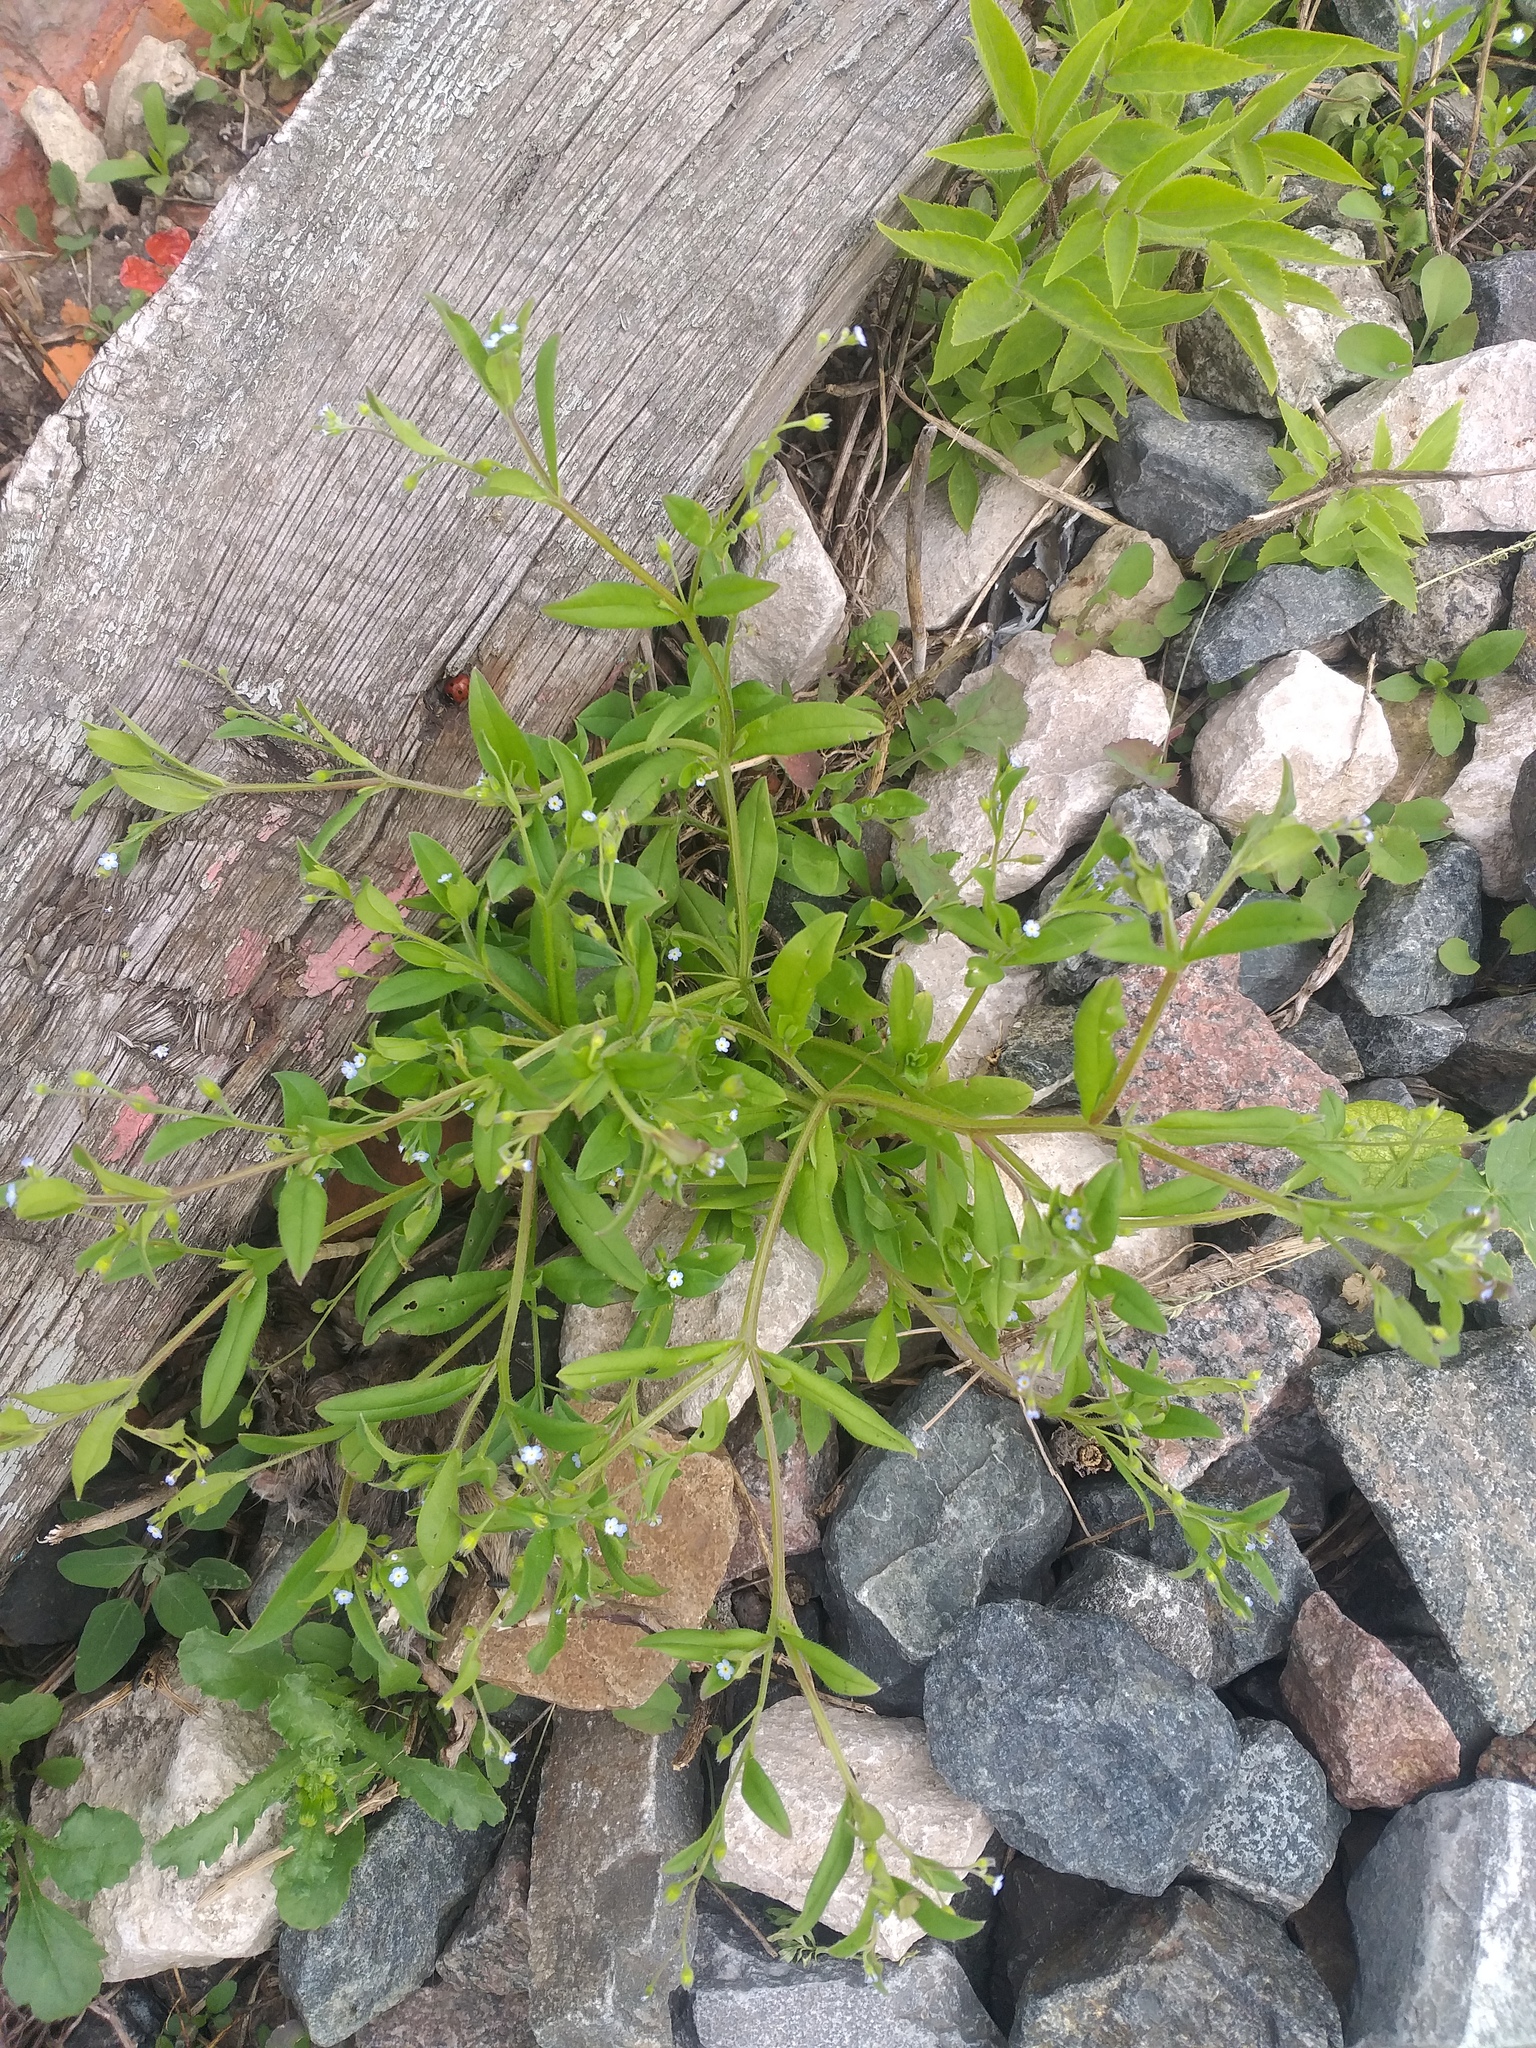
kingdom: Plantae
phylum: Tracheophyta
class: Magnoliopsida
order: Boraginales
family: Boraginaceae
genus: Myosotis
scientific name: Myosotis sparsiflora
